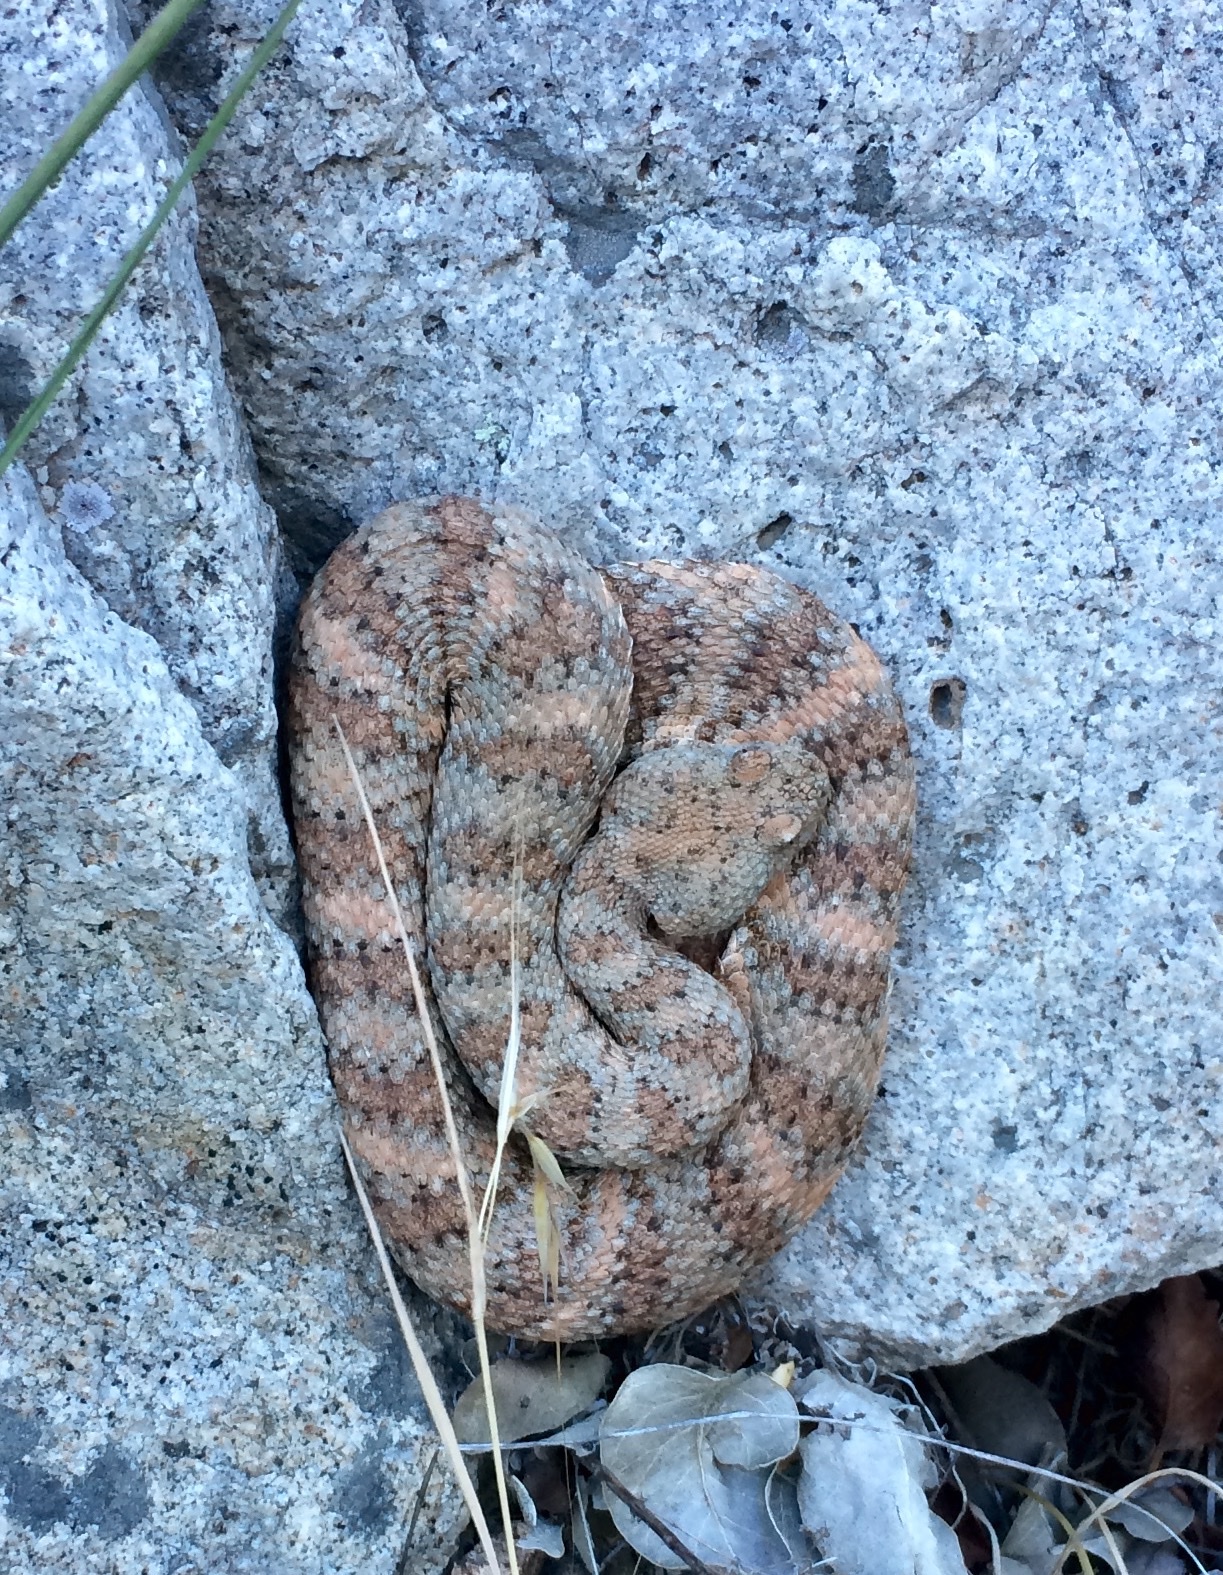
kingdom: Animalia
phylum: Chordata
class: Squamata
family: Viperidae
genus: Crotalus
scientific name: Crotalus pyrrhus
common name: Southwestern speckled rattlesnake
